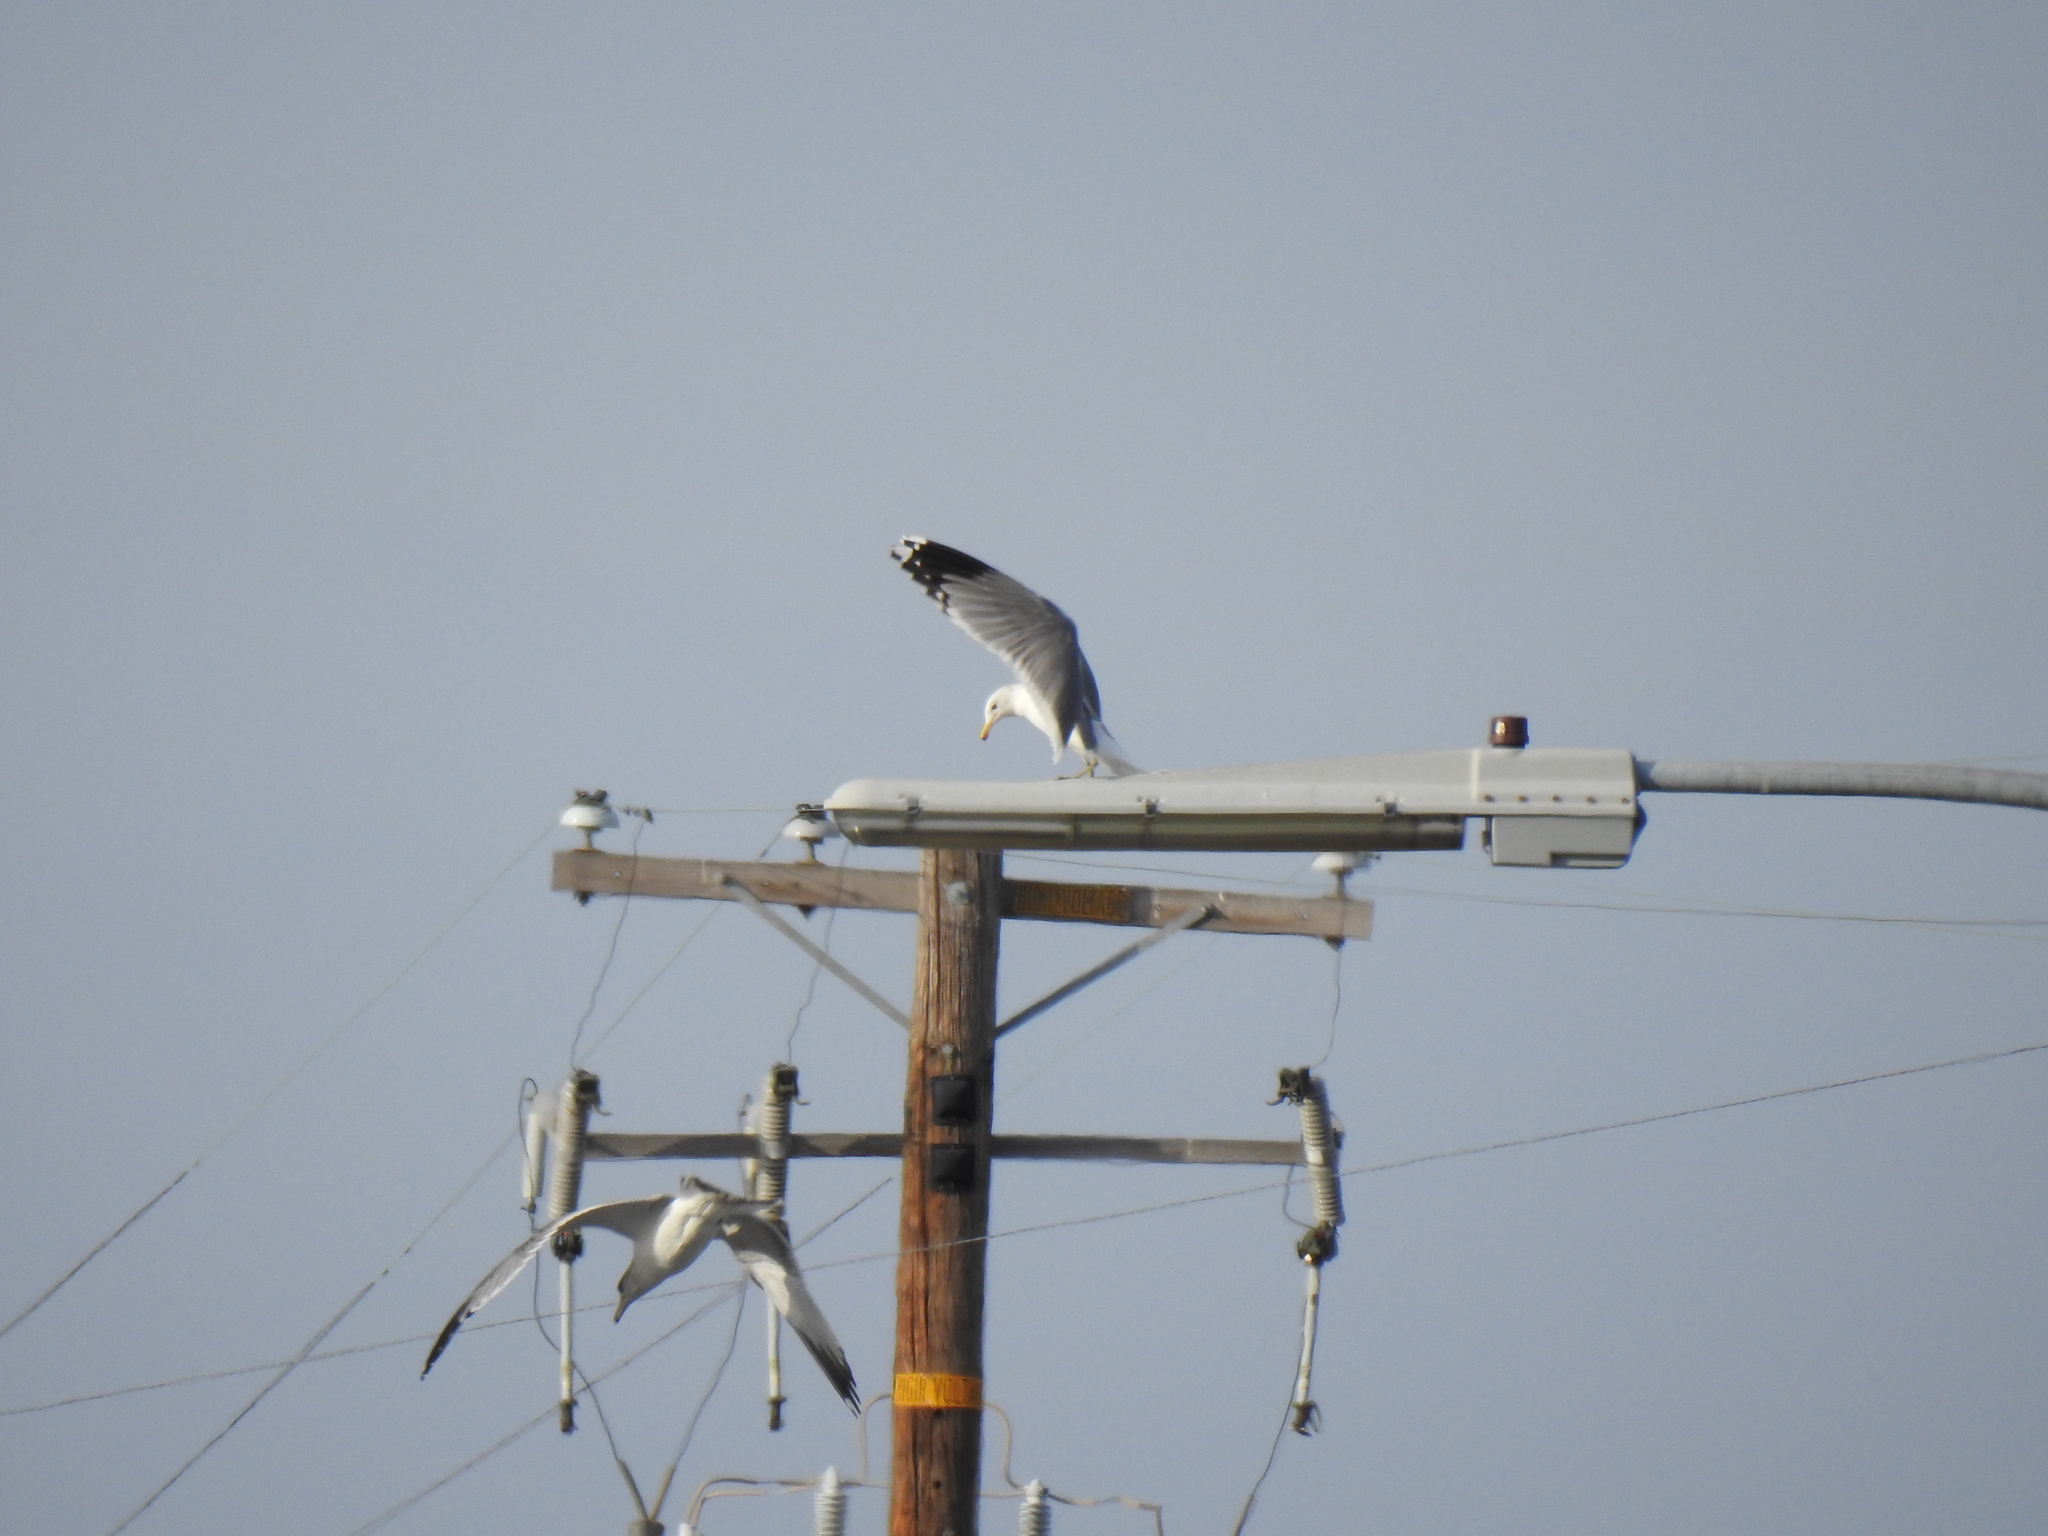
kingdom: Animalia
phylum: Chordata
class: Aves
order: Charadriiformes
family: Laridae
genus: Larus
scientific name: Larus californicus
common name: California gull
